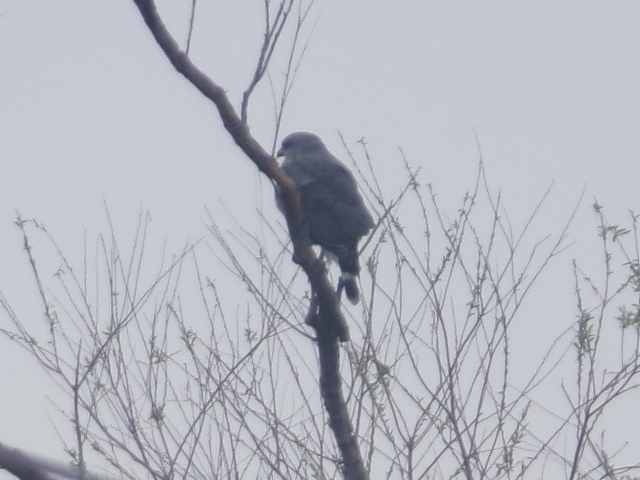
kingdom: Animalia
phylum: Chordata
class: Aves
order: Accipitriformes
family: Accipitridae
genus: Buteo
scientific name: Buteo nitidus
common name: Grey-lined hawk
